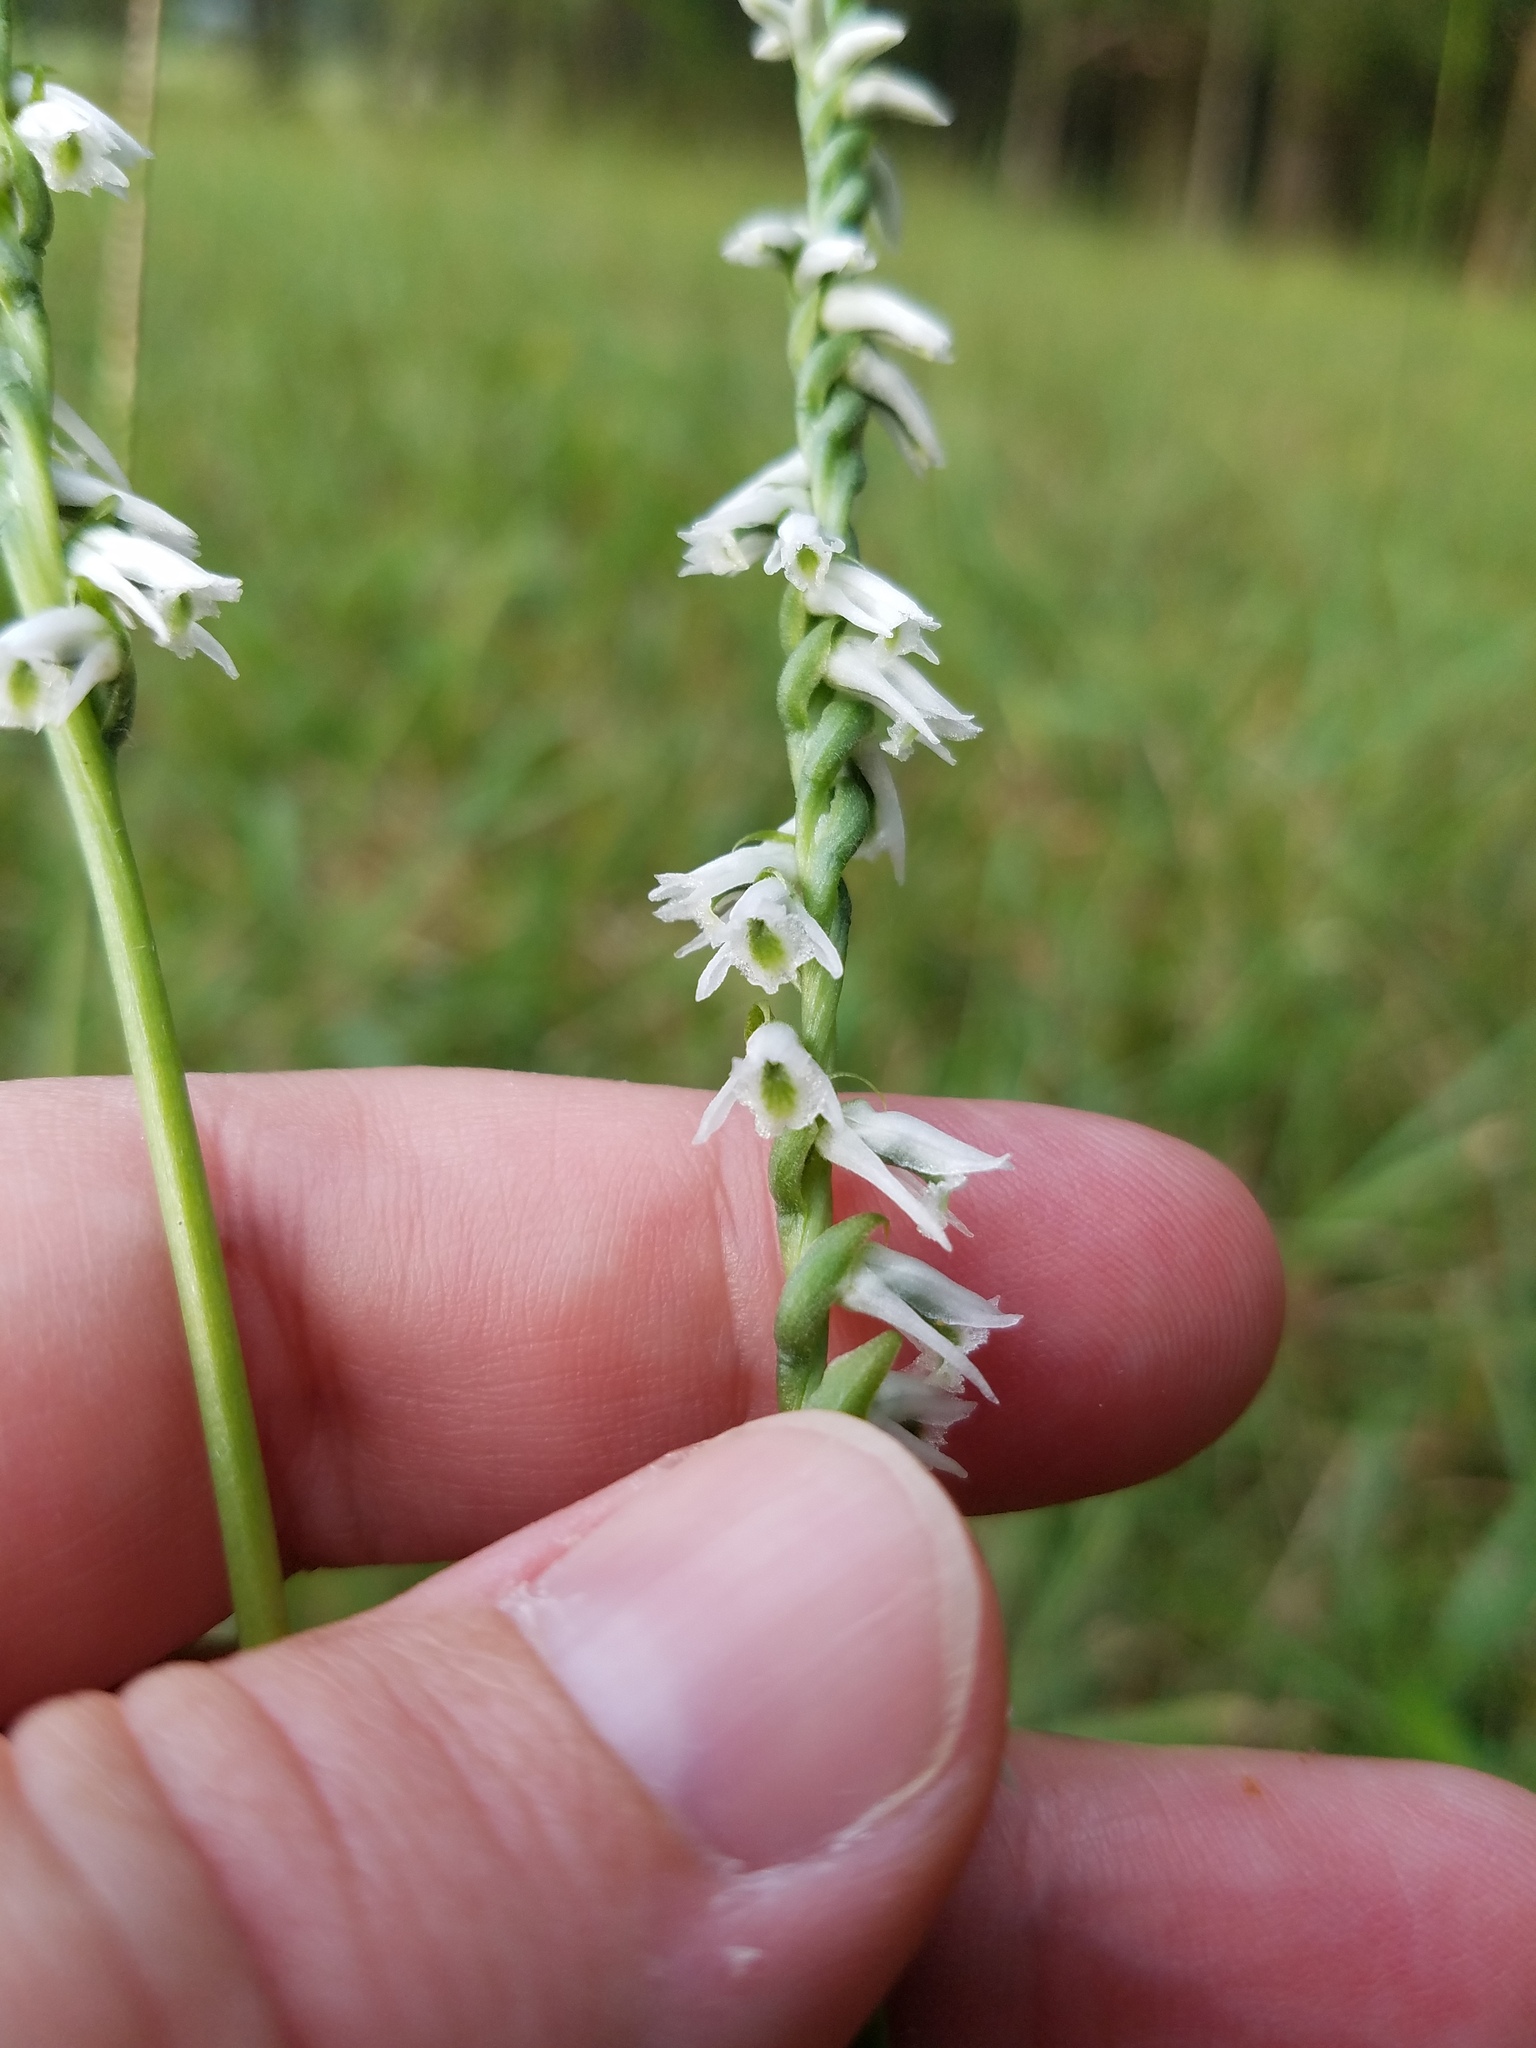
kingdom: Plantae
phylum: Tracheophyta
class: Liliopsida
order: Asparagales
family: Orchidaceae
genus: Spiranthes
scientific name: Spiranthes lacera
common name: Northern slender ladies'-tresses
